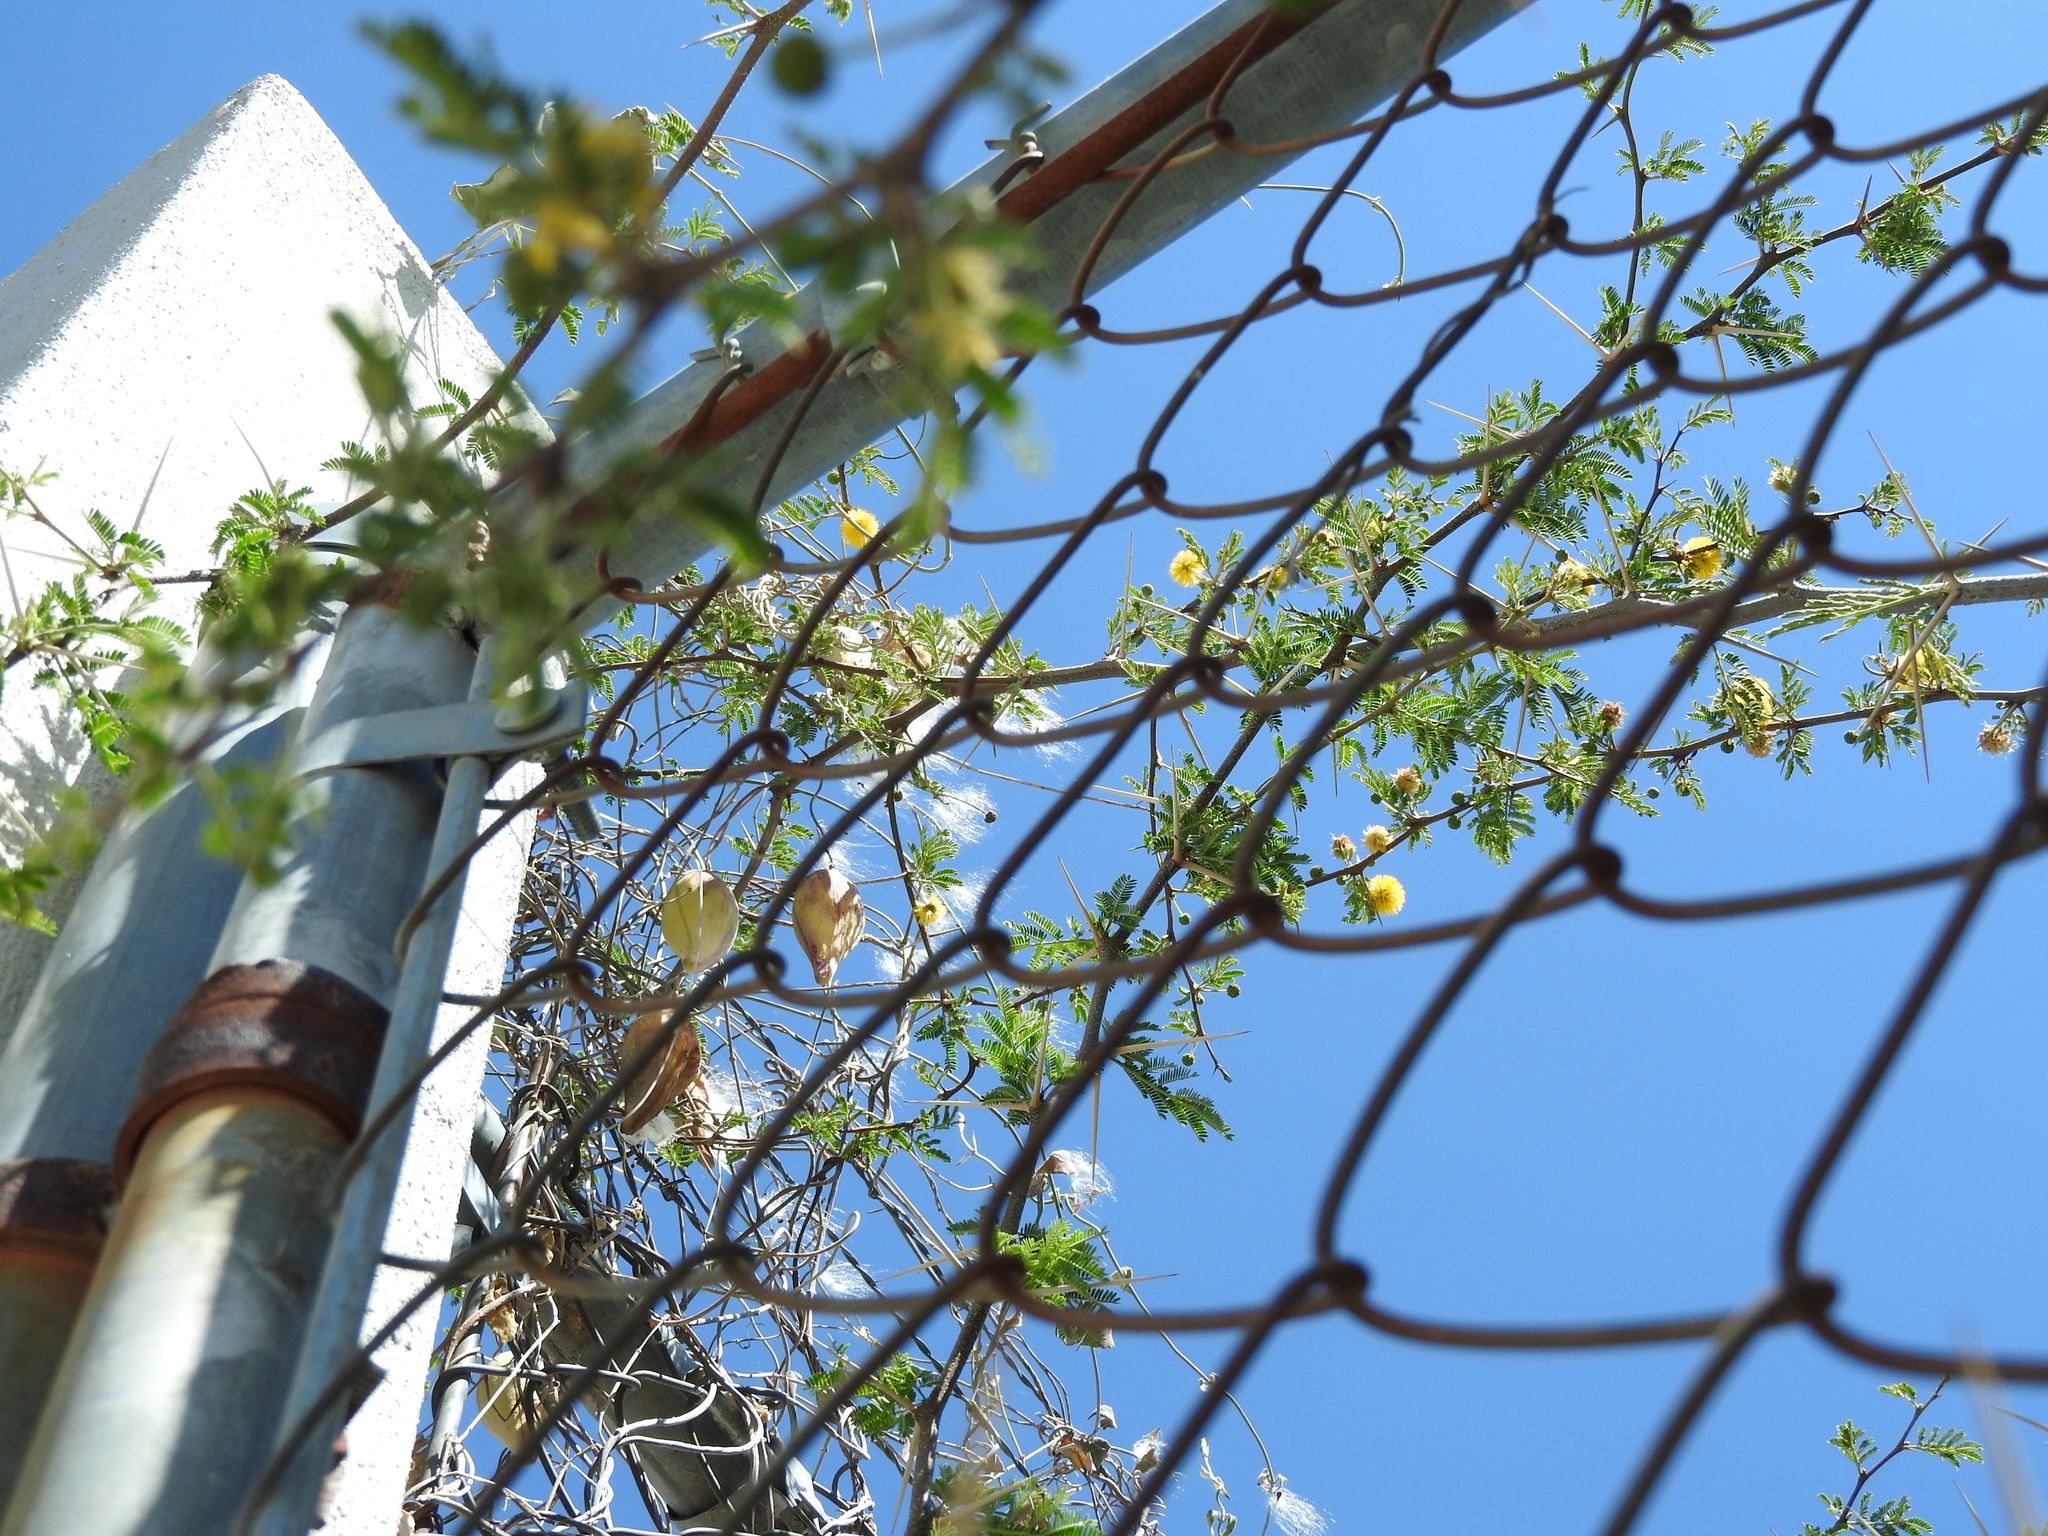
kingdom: Plantae
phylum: Tracheophyta
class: Magnoliopsida
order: Gentianales
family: Apocynaceae
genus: Funastrum
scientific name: Funastrum pannosum
